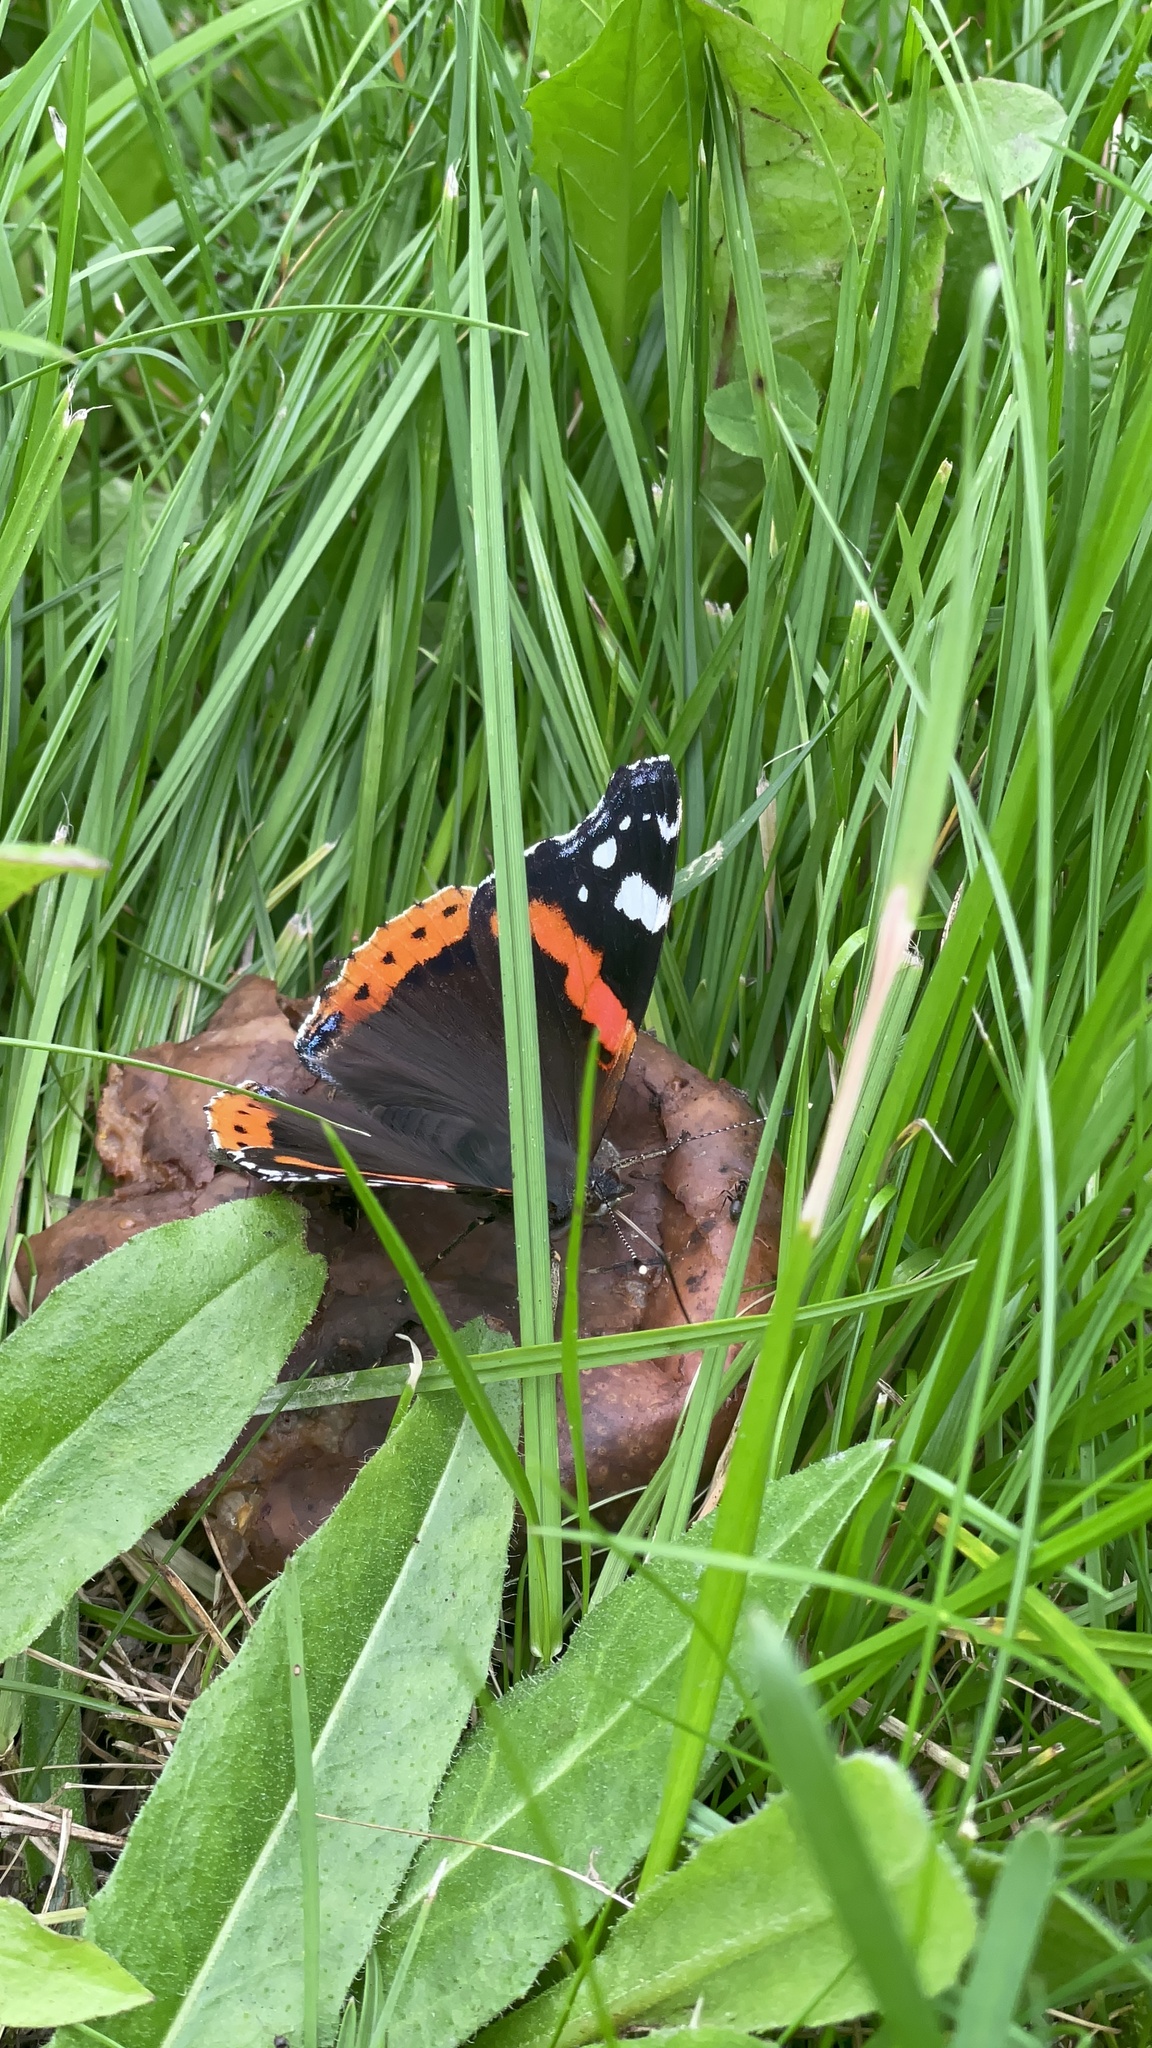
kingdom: Animalia
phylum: Arthropoda
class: Insecta
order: Lepidoptera
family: Nymphalidae
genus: Vanessa
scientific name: Vanessa atalanta
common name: Red admiral
